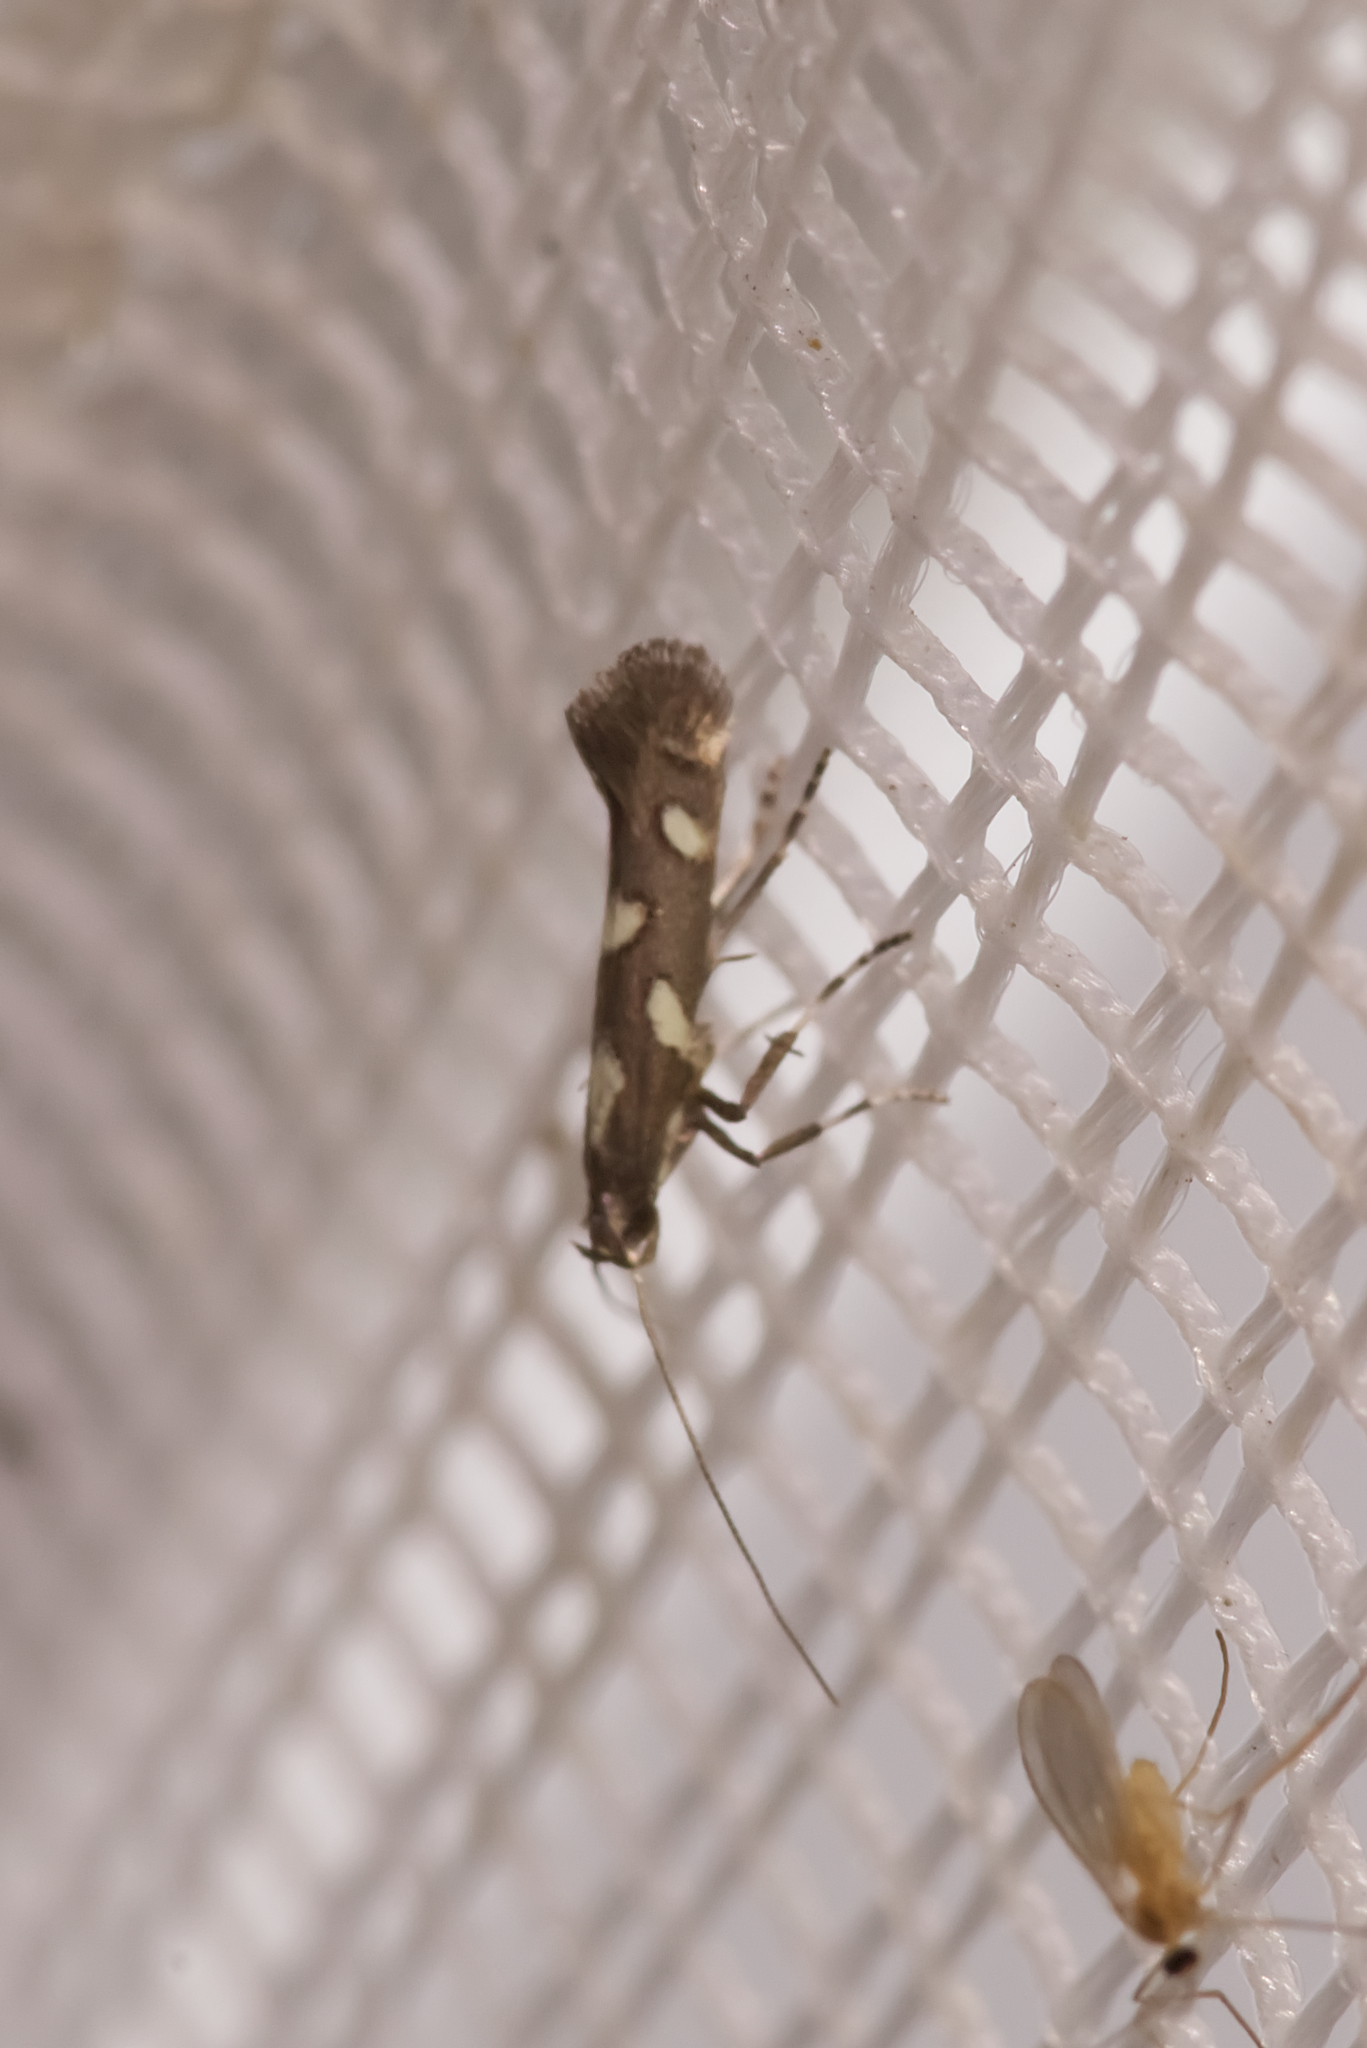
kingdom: Animalia
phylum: Arthropoda
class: Insecta
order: Lepidoptera
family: Gracillariidae
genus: Calybites
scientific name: Calybites phasianipennella
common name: Little slender
